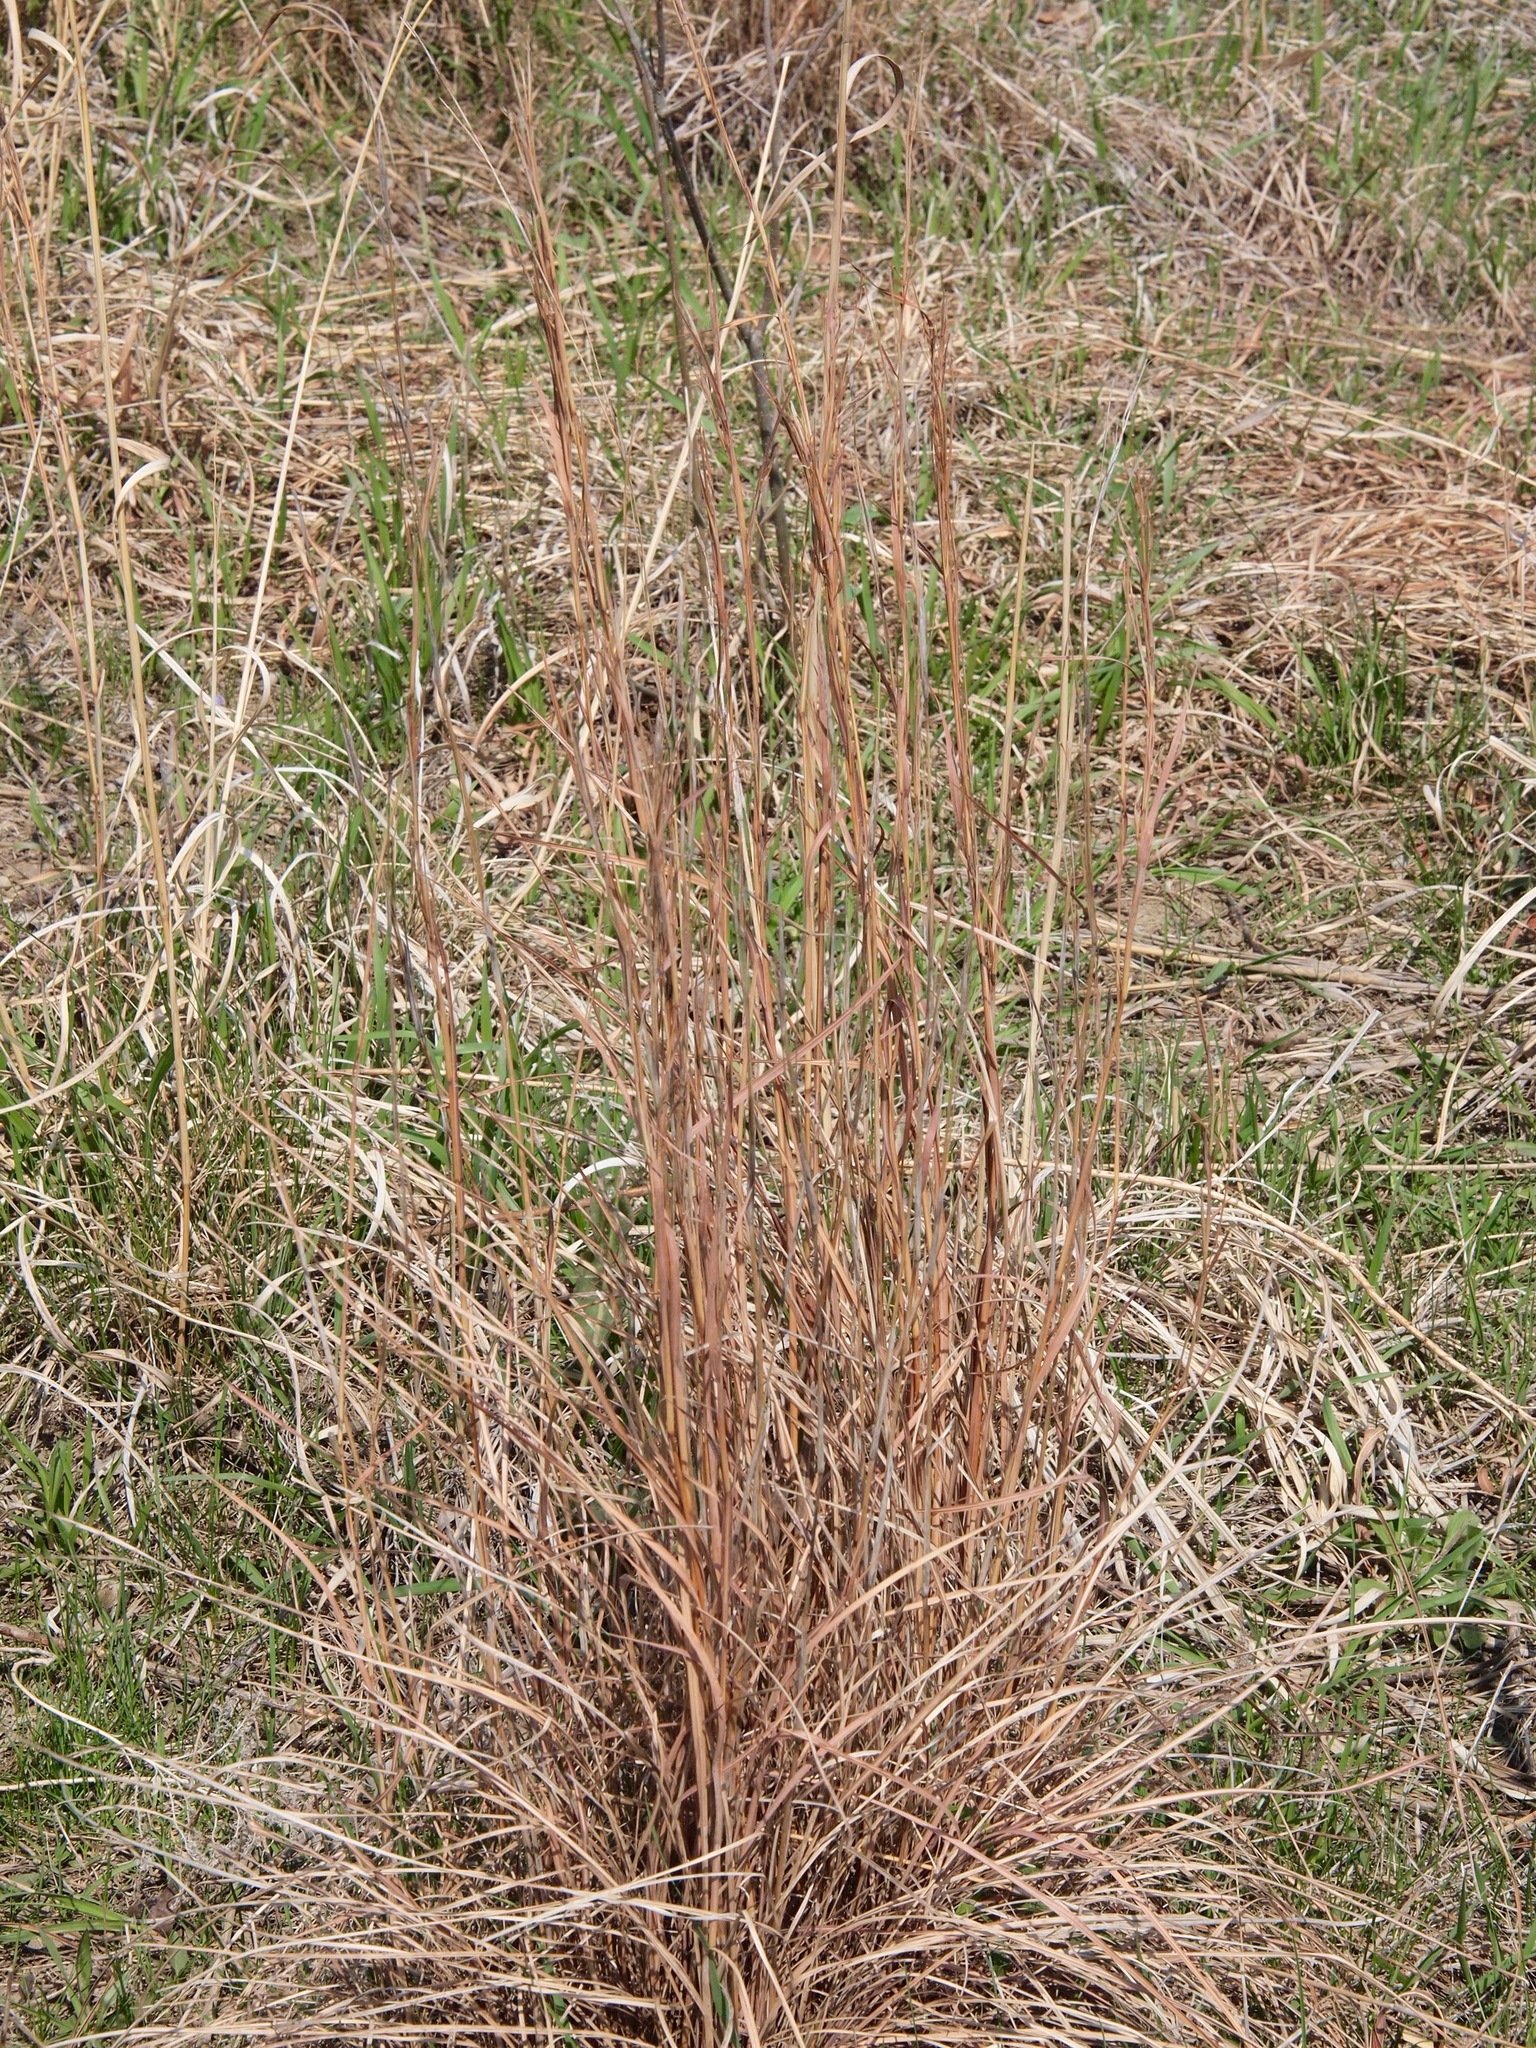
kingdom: Plantae
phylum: Tracheophyta
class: Liliopsida
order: Poales
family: Poaceae
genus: Schizachyrium
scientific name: Schizachyrium scoparium
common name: Little bluestem
